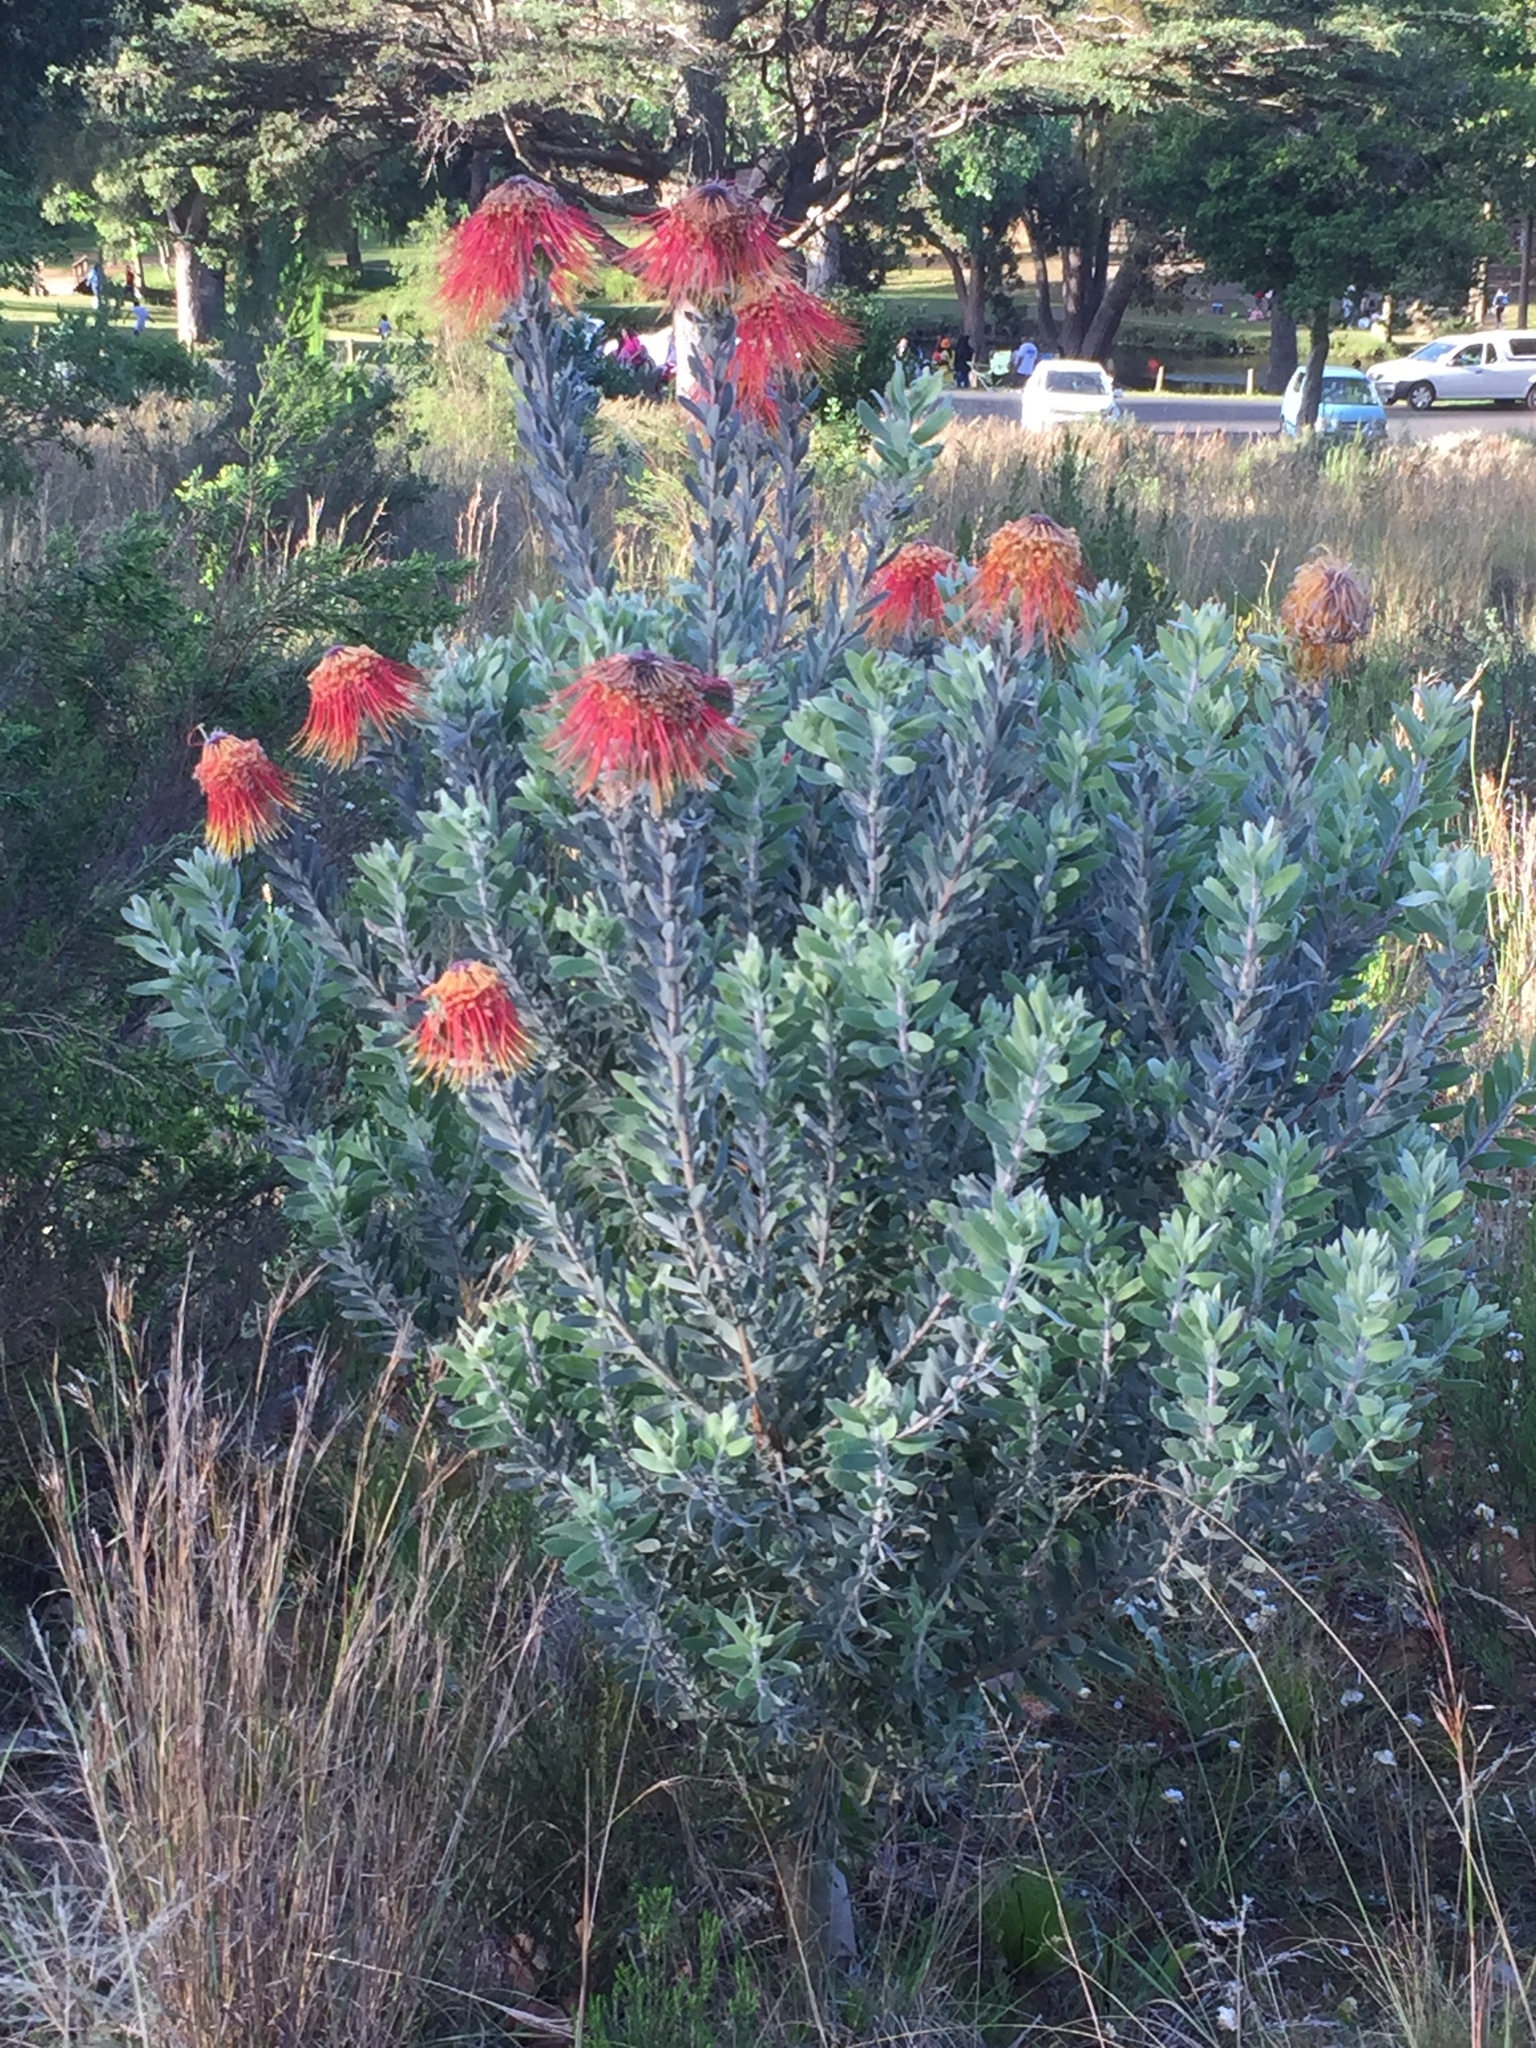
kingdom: Plantae
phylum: Tracheophyta
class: Magnoliopsida
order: Proteales
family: Proteaceae
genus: Leucospermum
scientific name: Leucospermum reflexum
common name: Rocket pincushion
